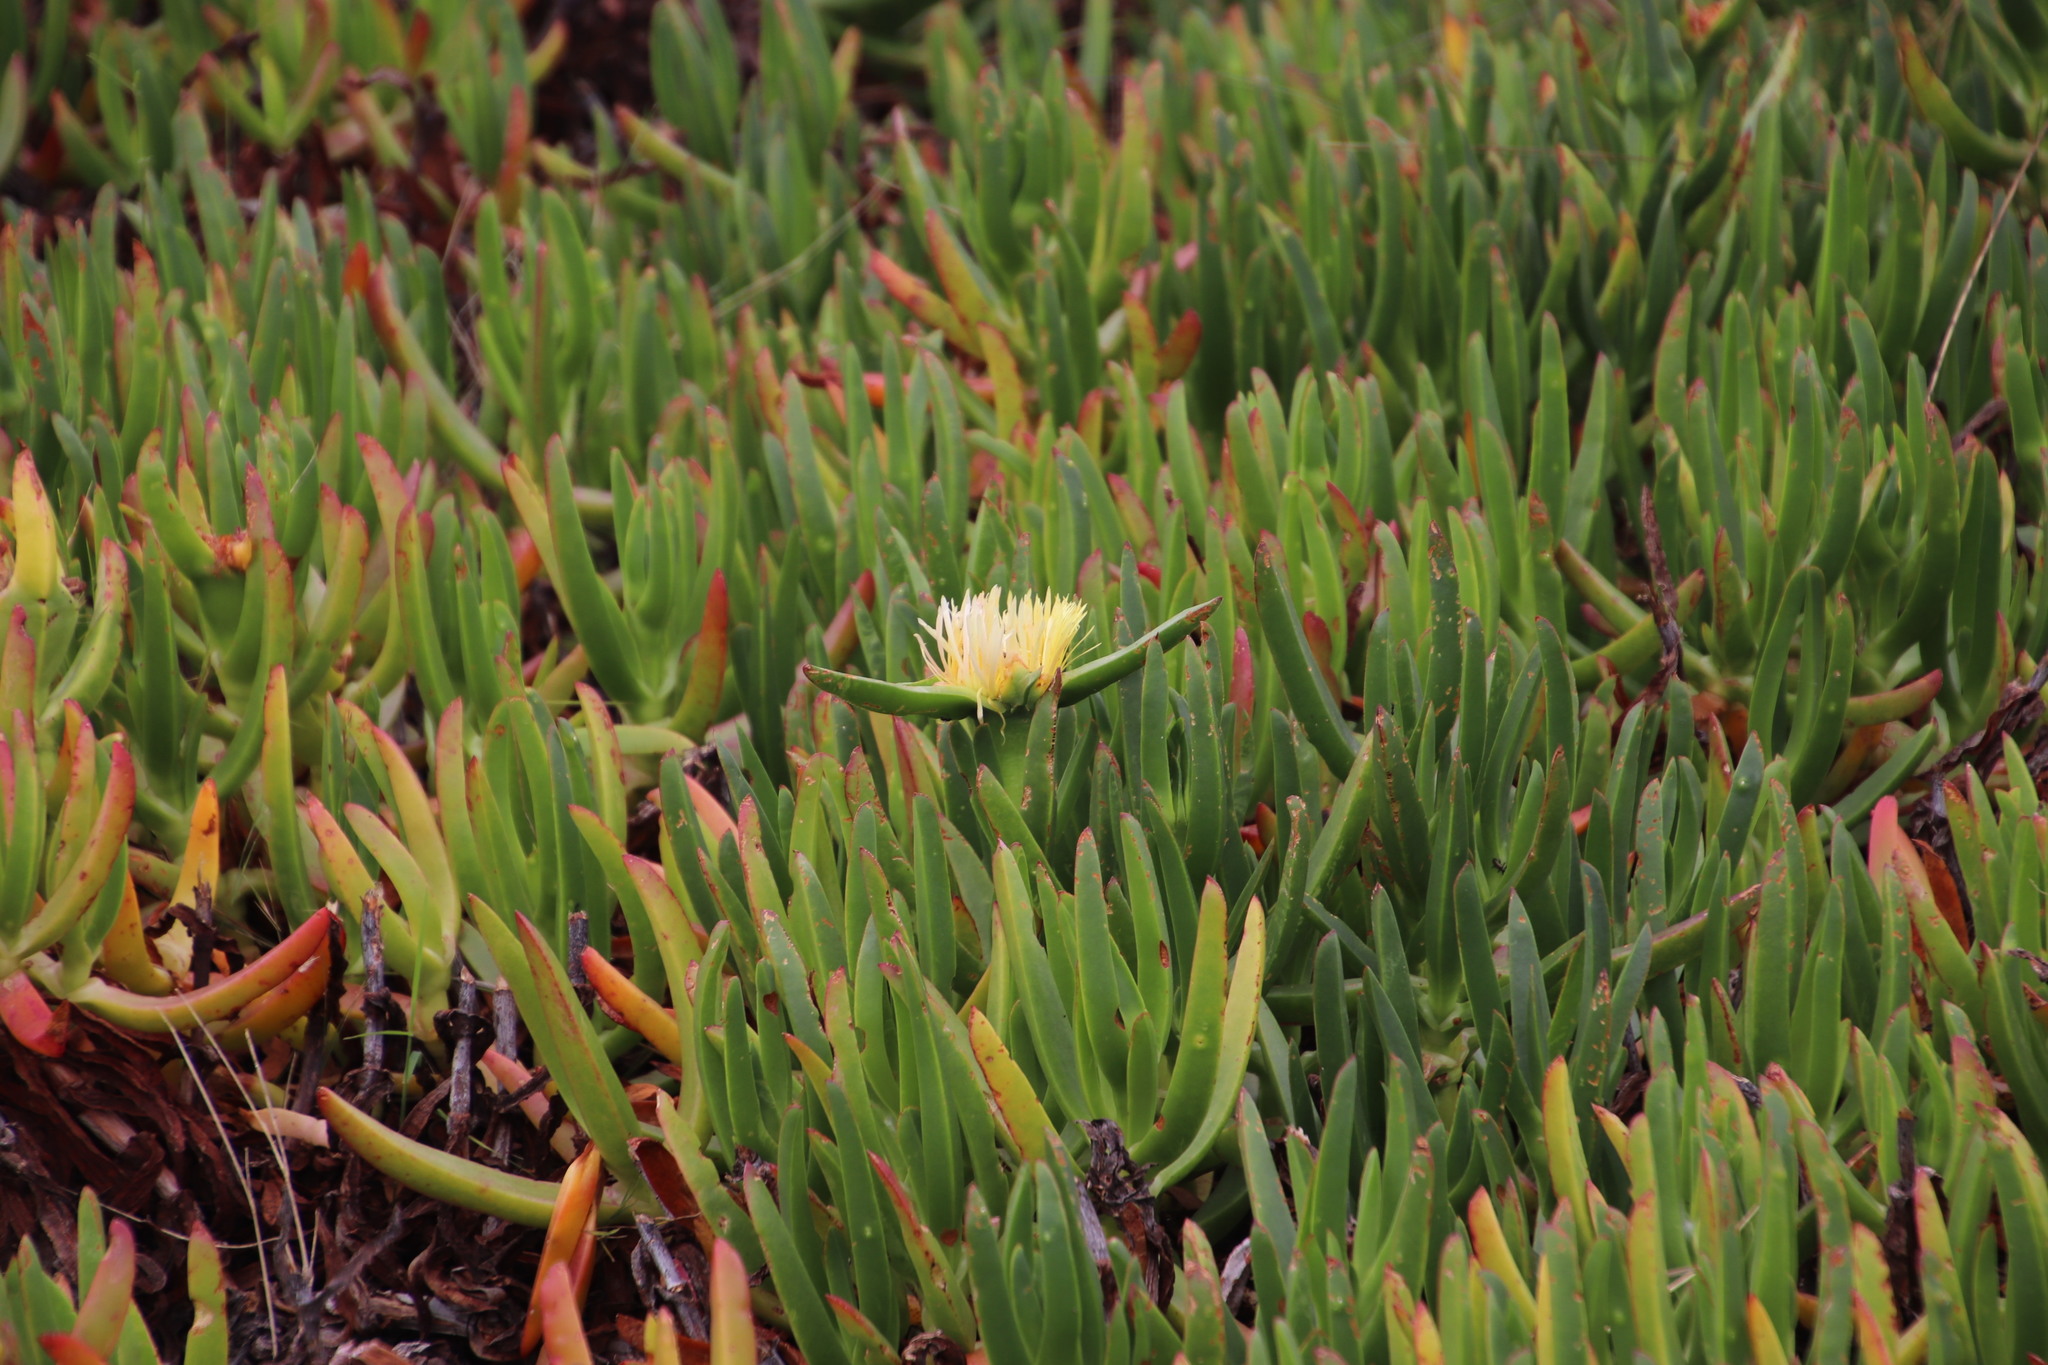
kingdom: Plantae
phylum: Tracheophyta
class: Magnoliopsida
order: Caryophyllales
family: Aizoaceae
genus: Carpobrotus
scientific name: Carpobrotus edulis
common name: Hottentot-fig
